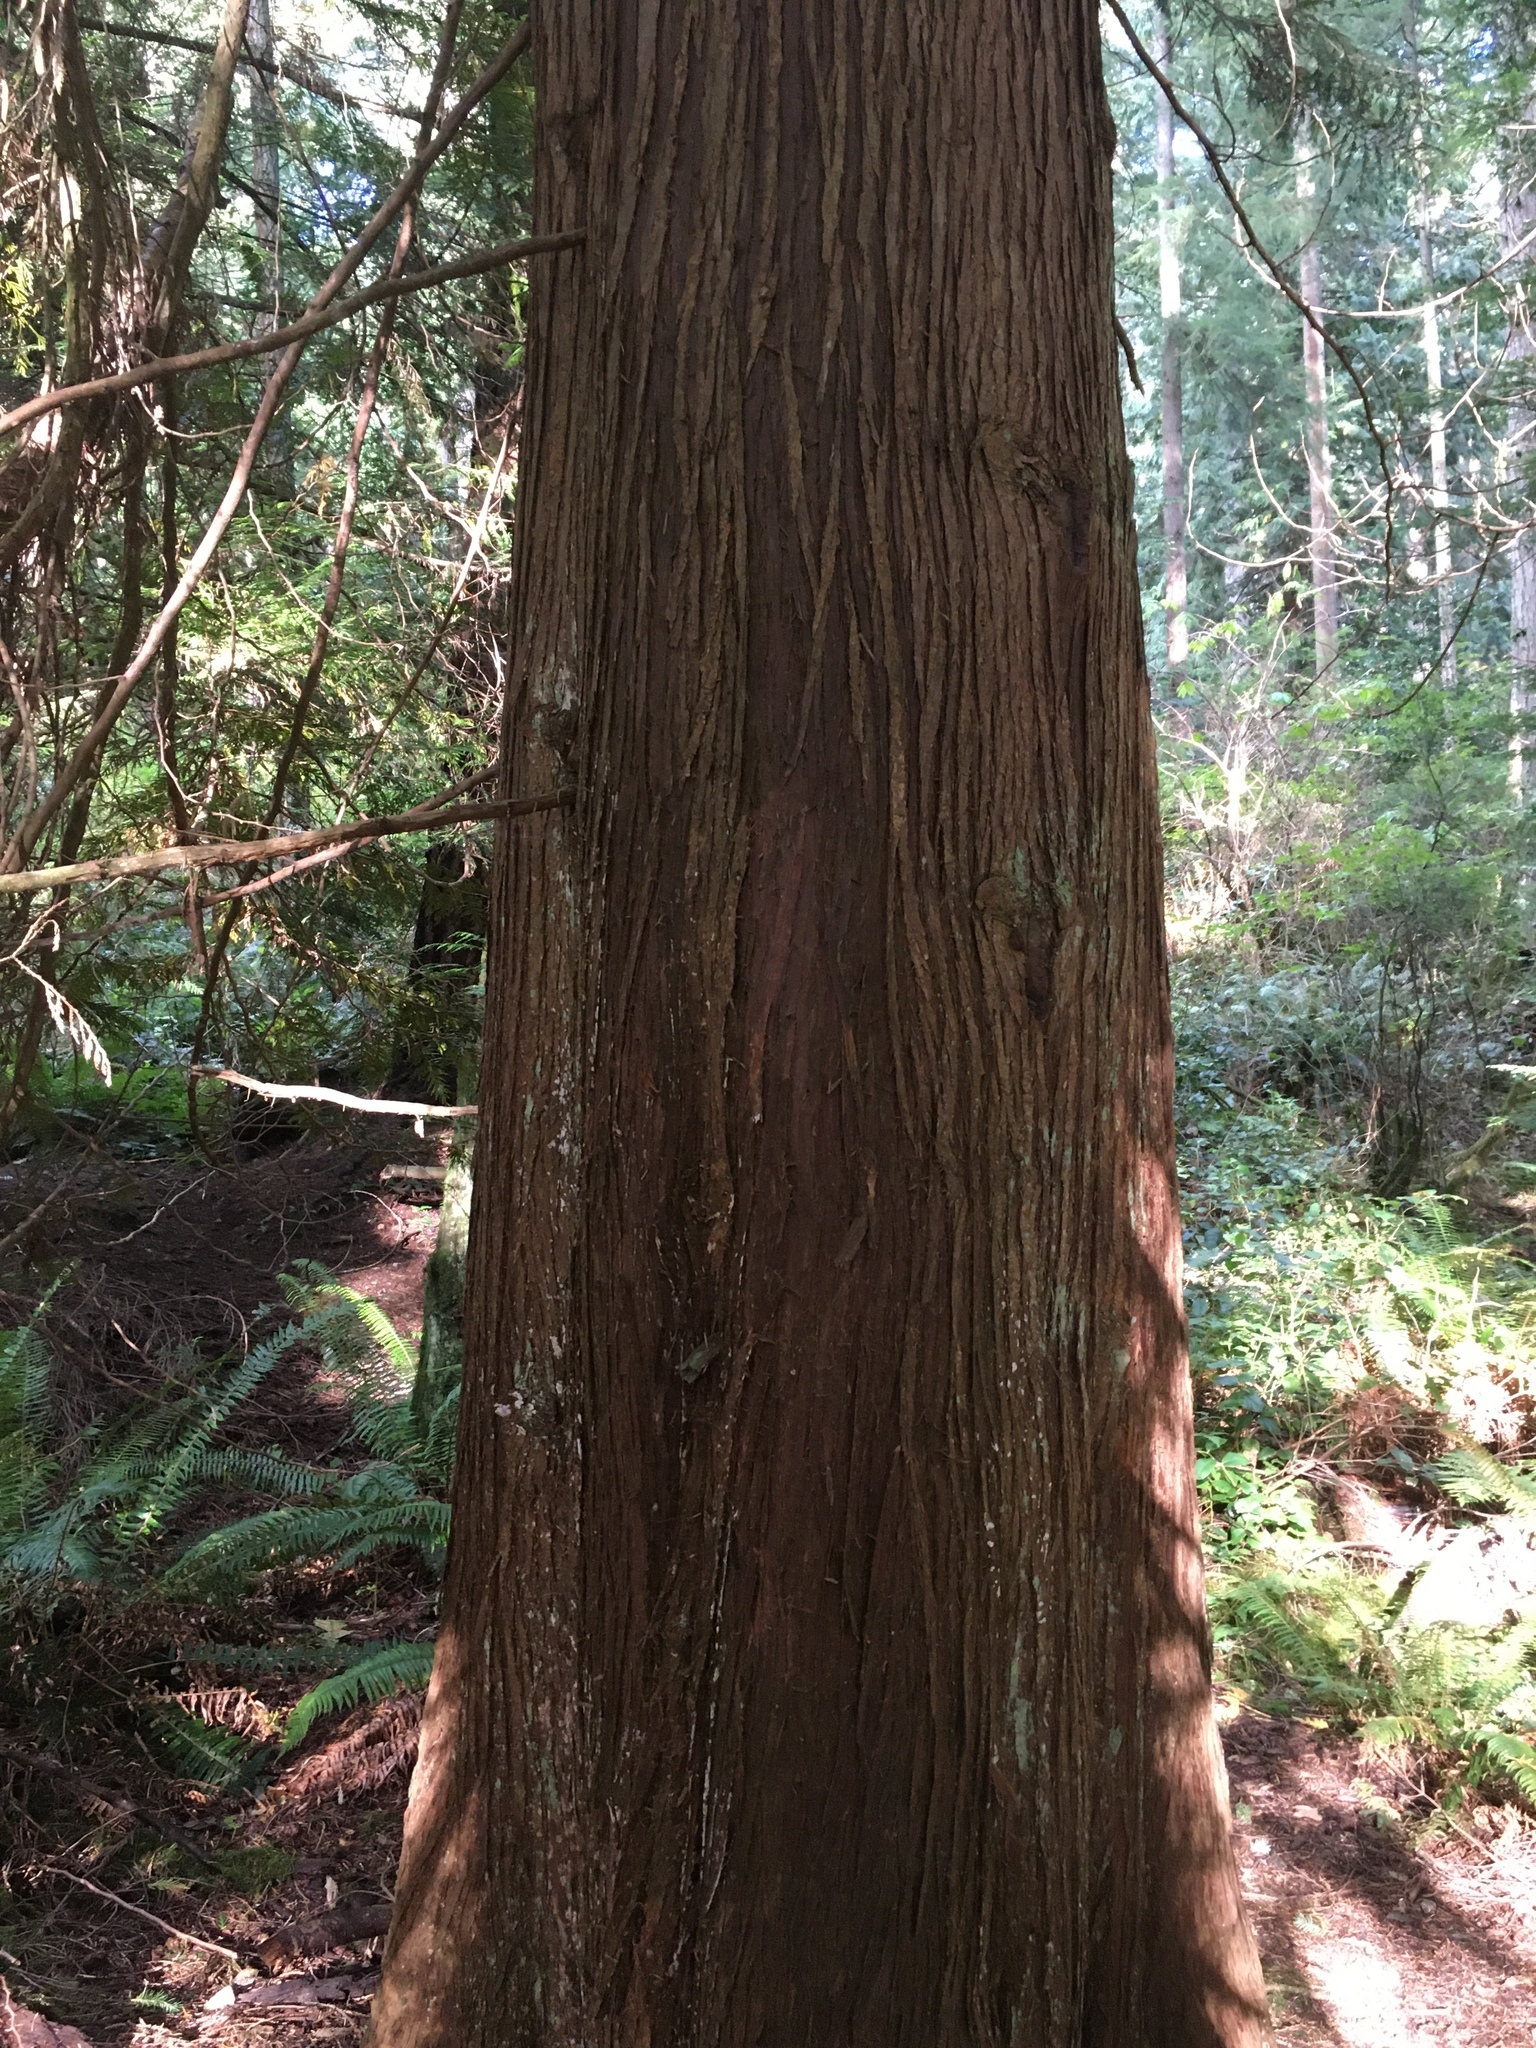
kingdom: Plantae
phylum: Tracheophyta
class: Pinopsida
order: Pinales
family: Cupressaceae
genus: Thuja
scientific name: Thuja plicata
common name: Western red-cedar
